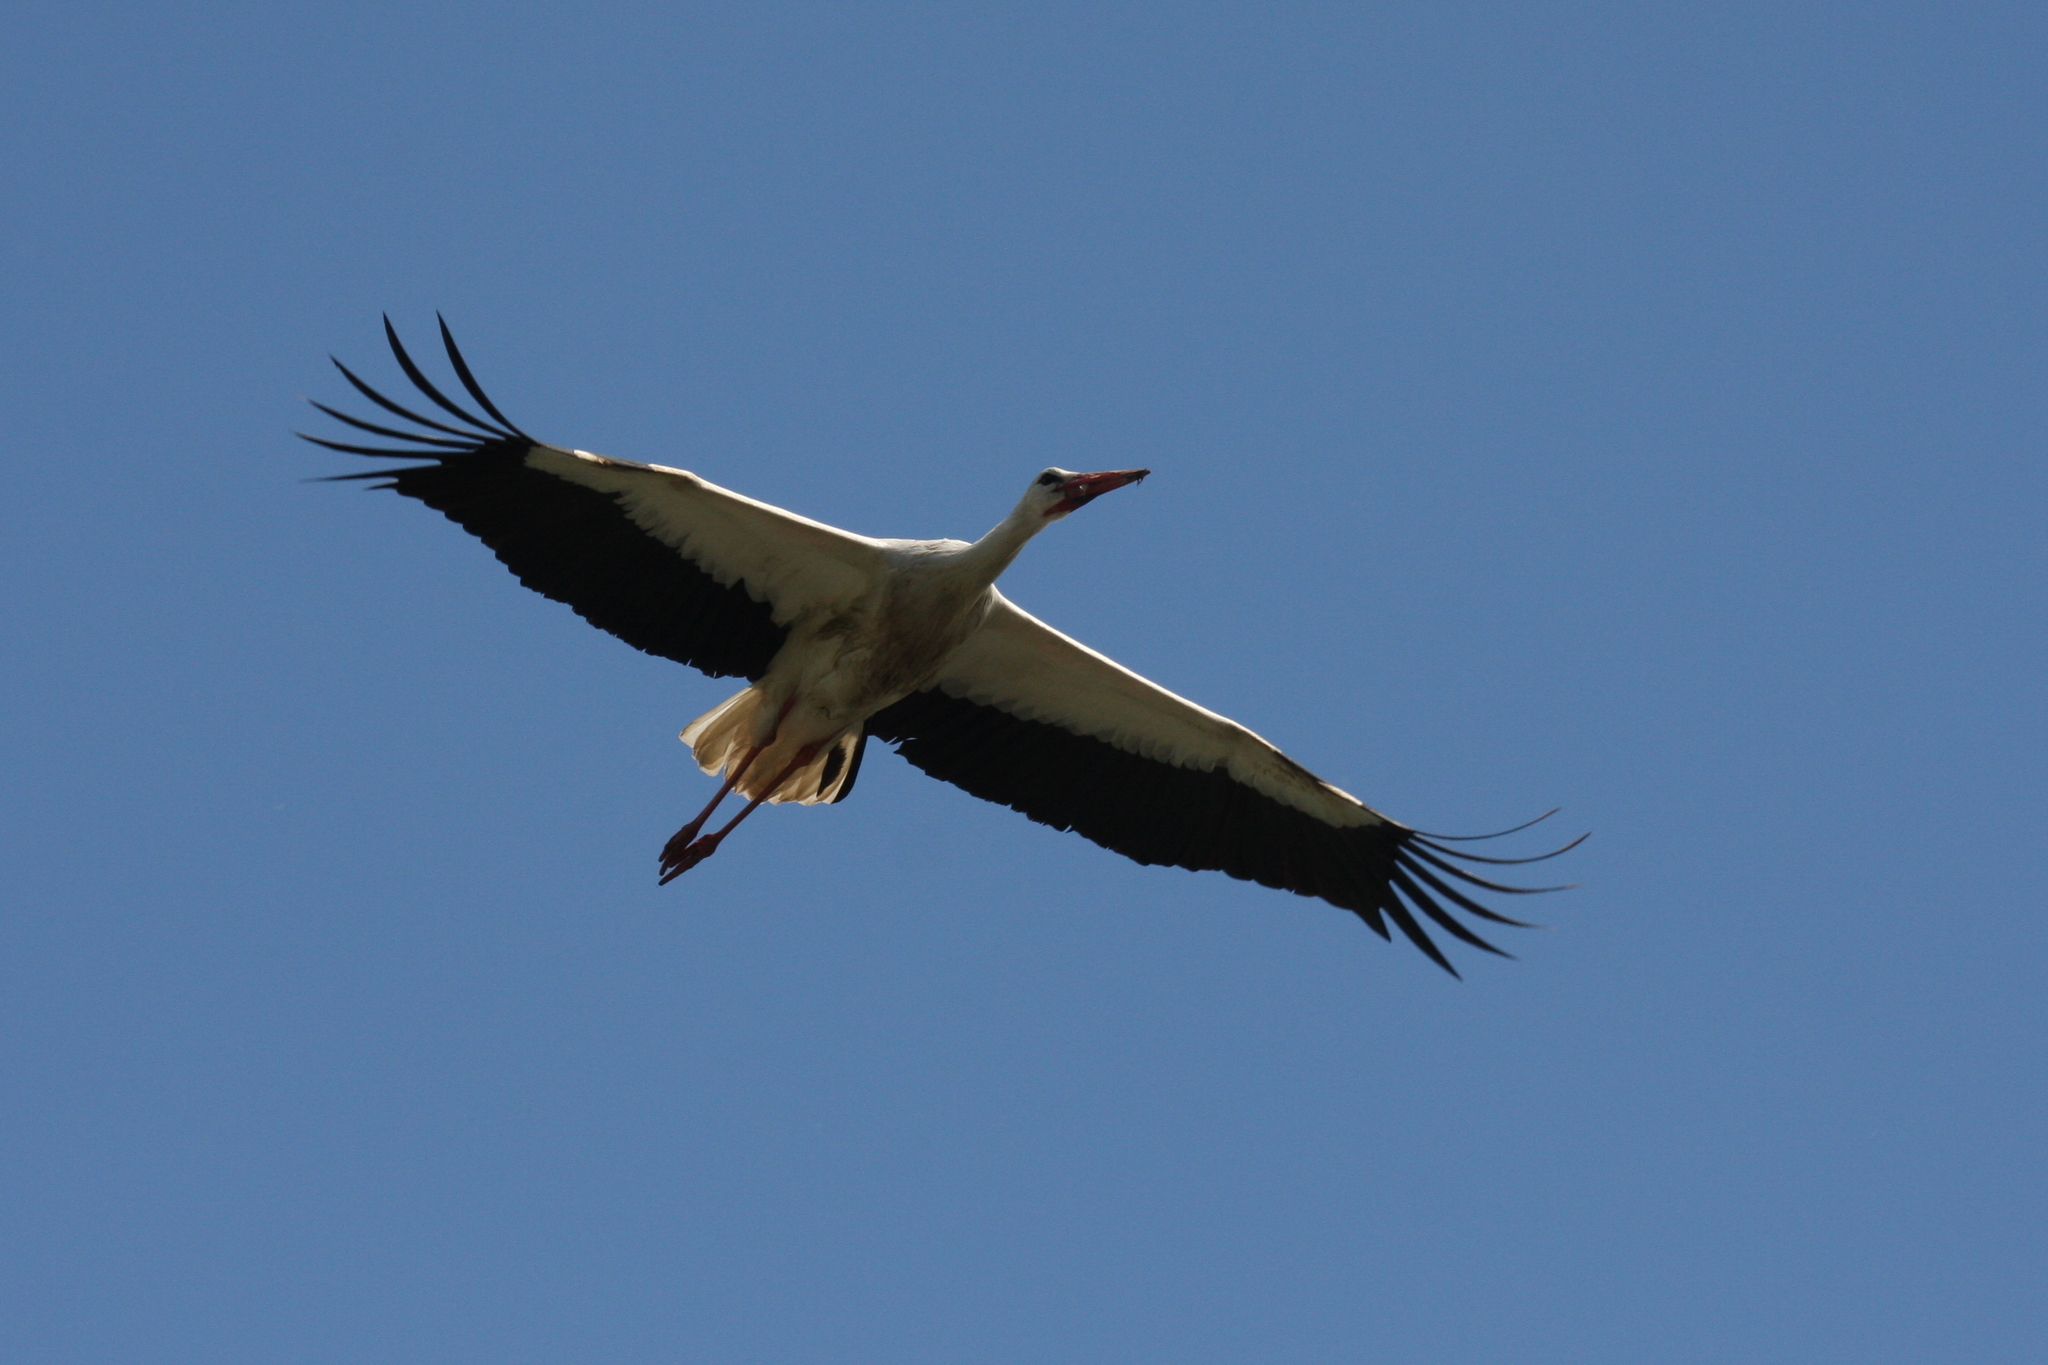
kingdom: Animalia
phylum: Chordata
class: Aves
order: Ciconiiformes
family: Ciconiidae
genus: Ciconia
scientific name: Ciconia ciconia
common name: White stork
